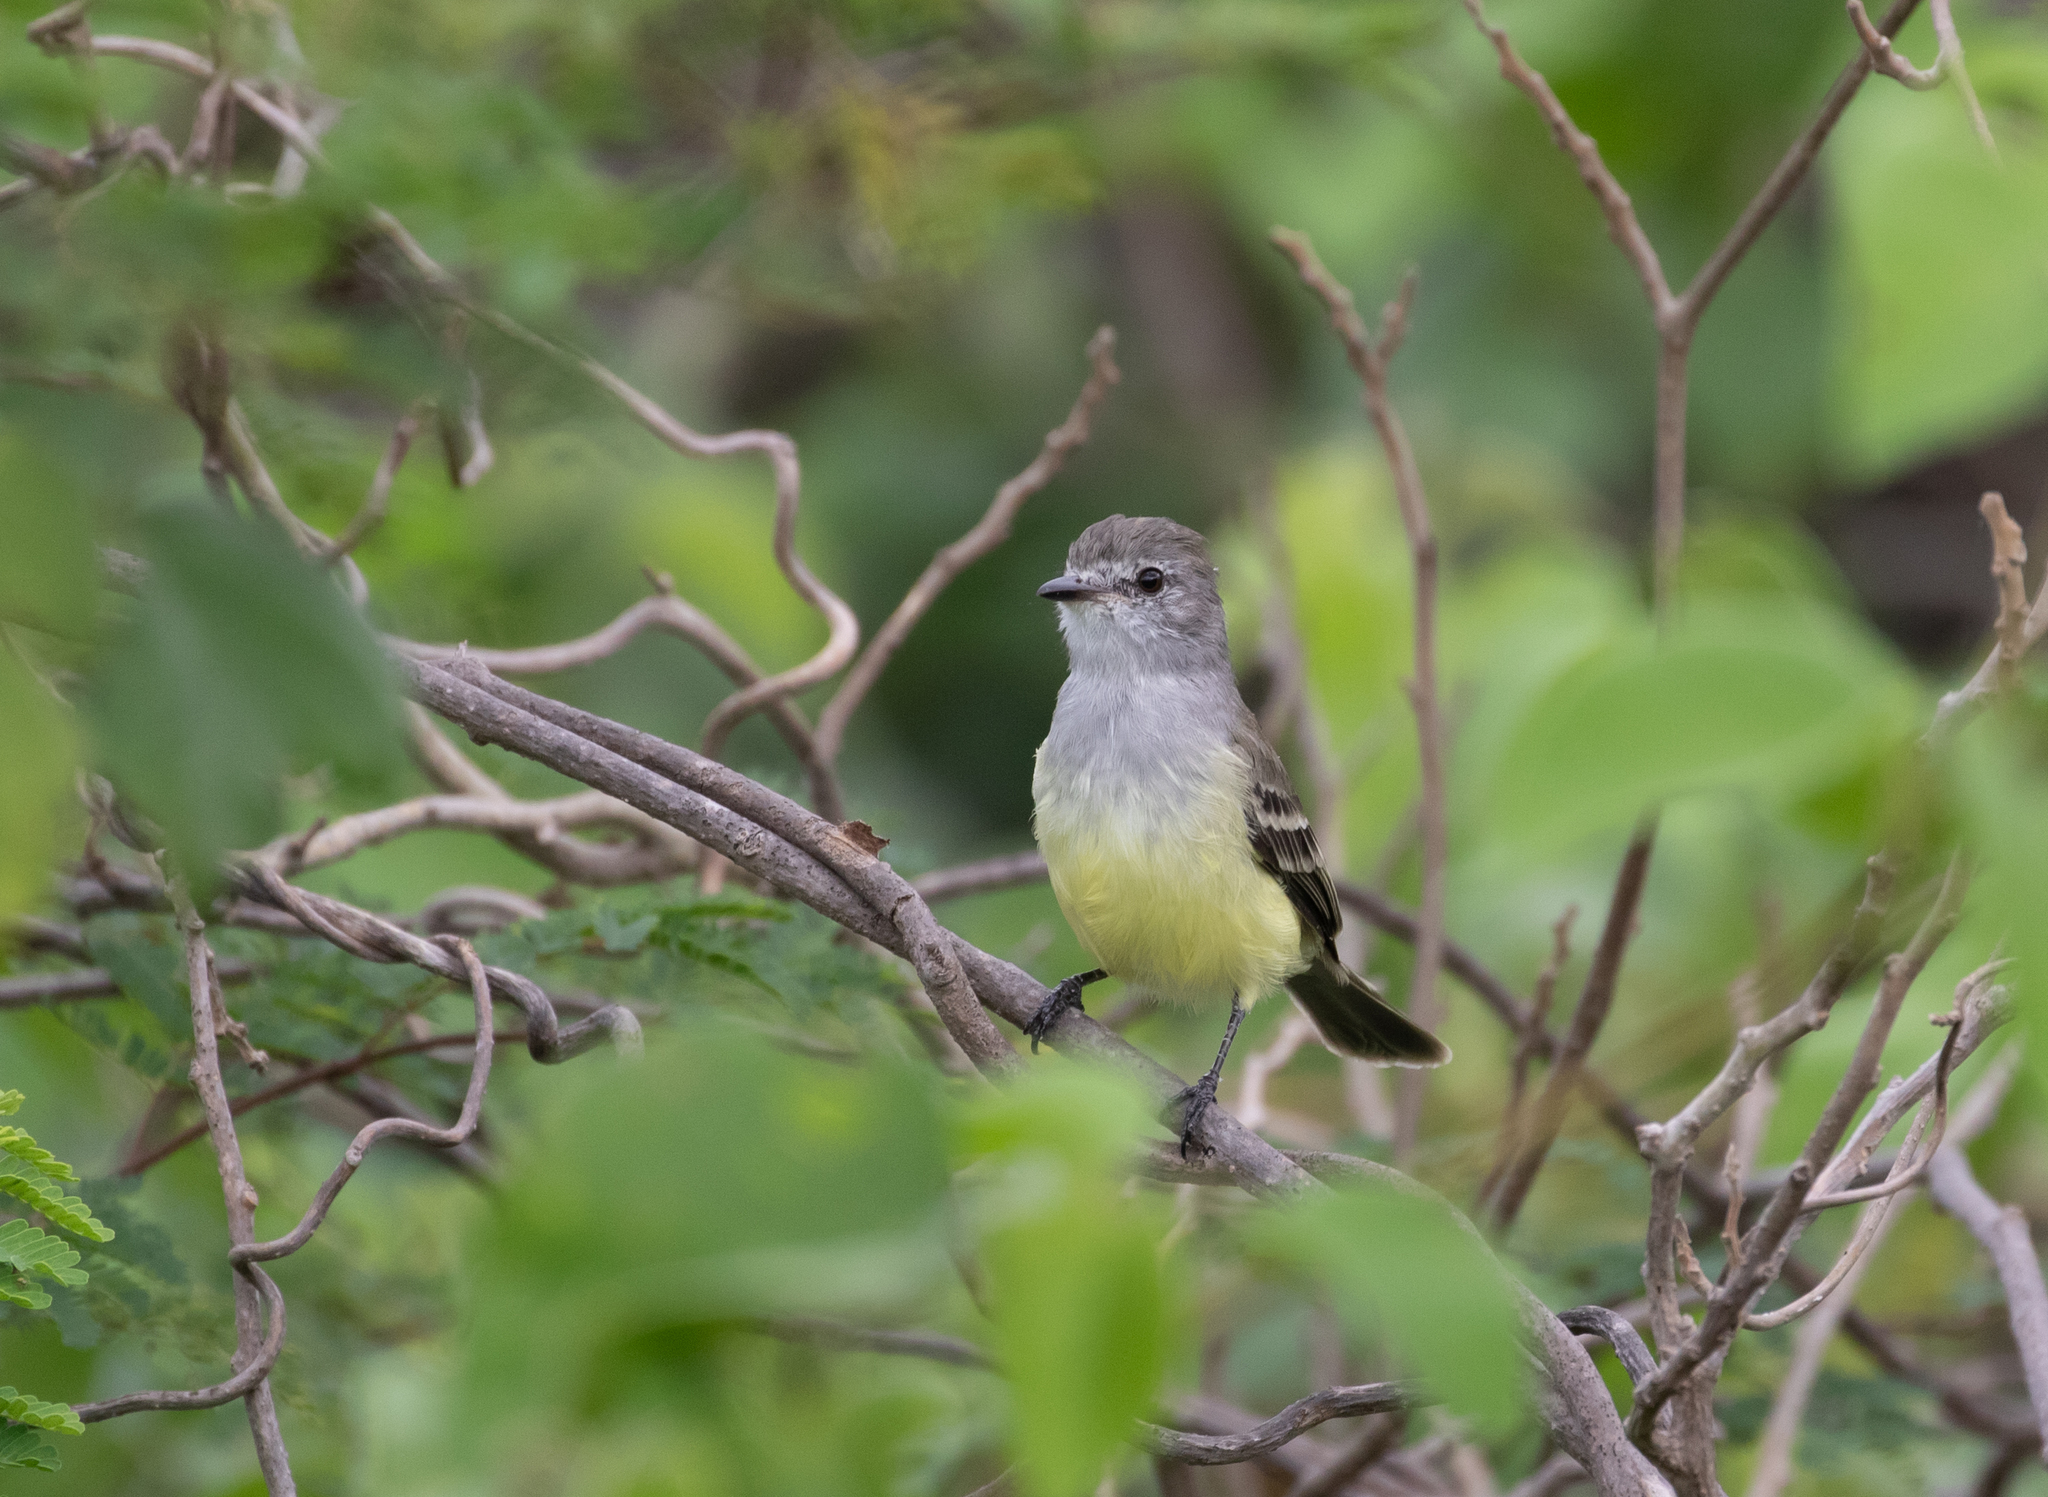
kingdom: Animalia
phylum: Chordata
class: Aves
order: Passeriformes
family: Tyrannidae
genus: Sublegatus
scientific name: Sublegatus arenarum
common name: Northern scrub-flycatcher
